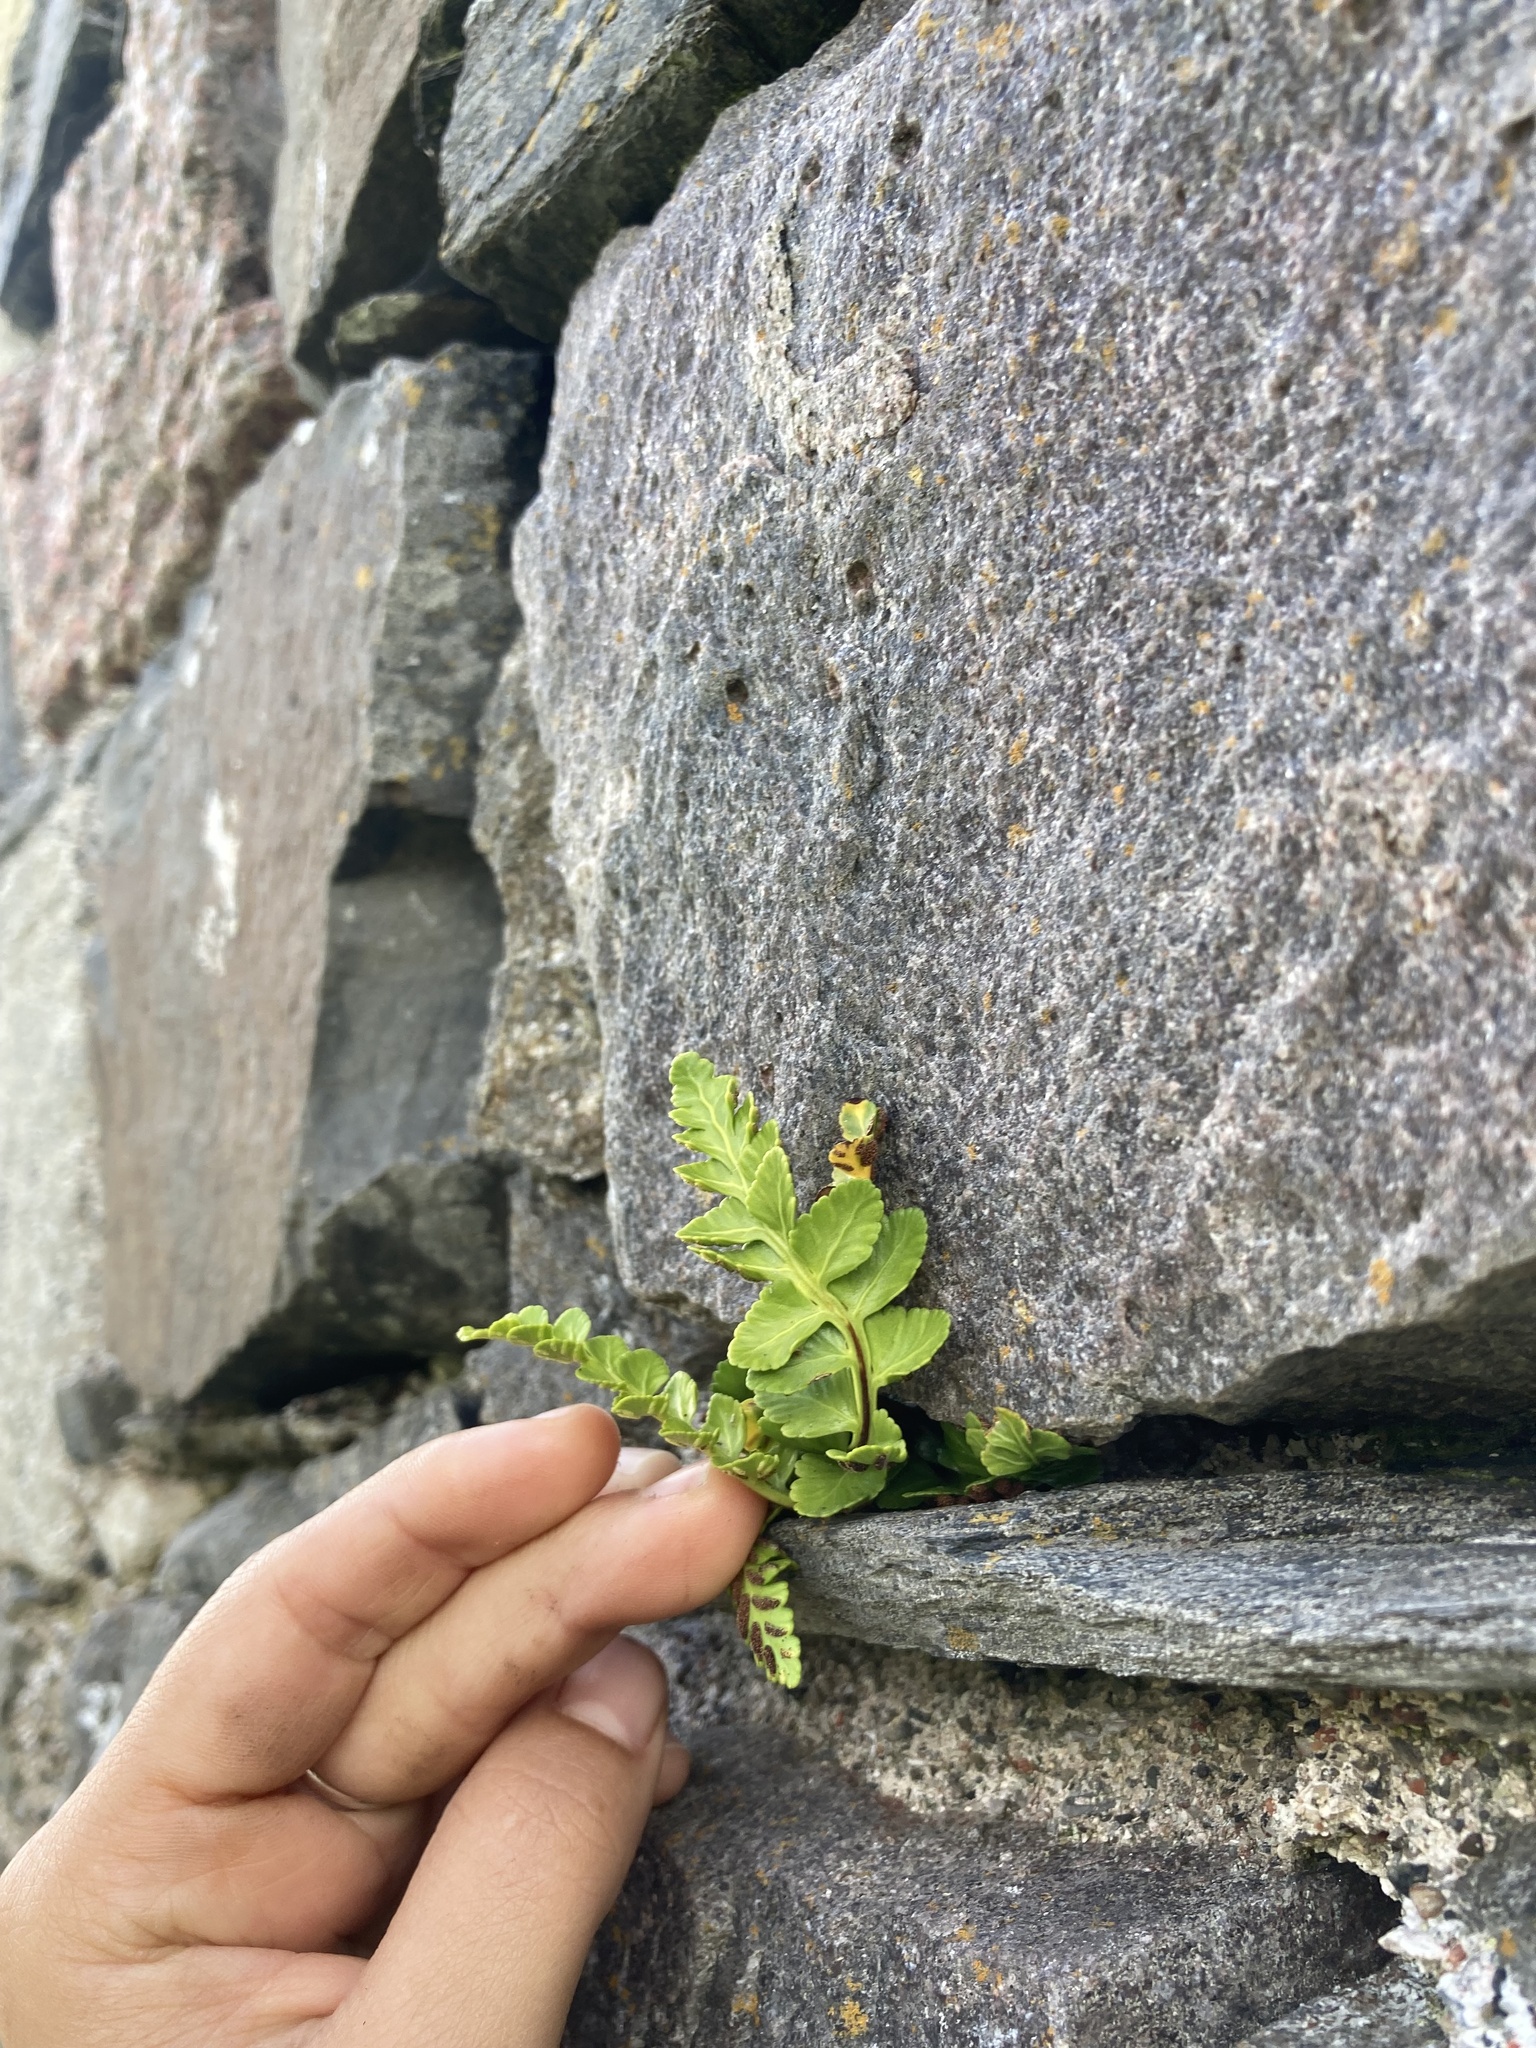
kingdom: Plantae
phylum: Tracheophyta
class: Polypodiopsida
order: Polypodiales
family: Aspleniaceae
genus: Asplenium
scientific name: Asplenium marinum
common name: Sea spleenwort
